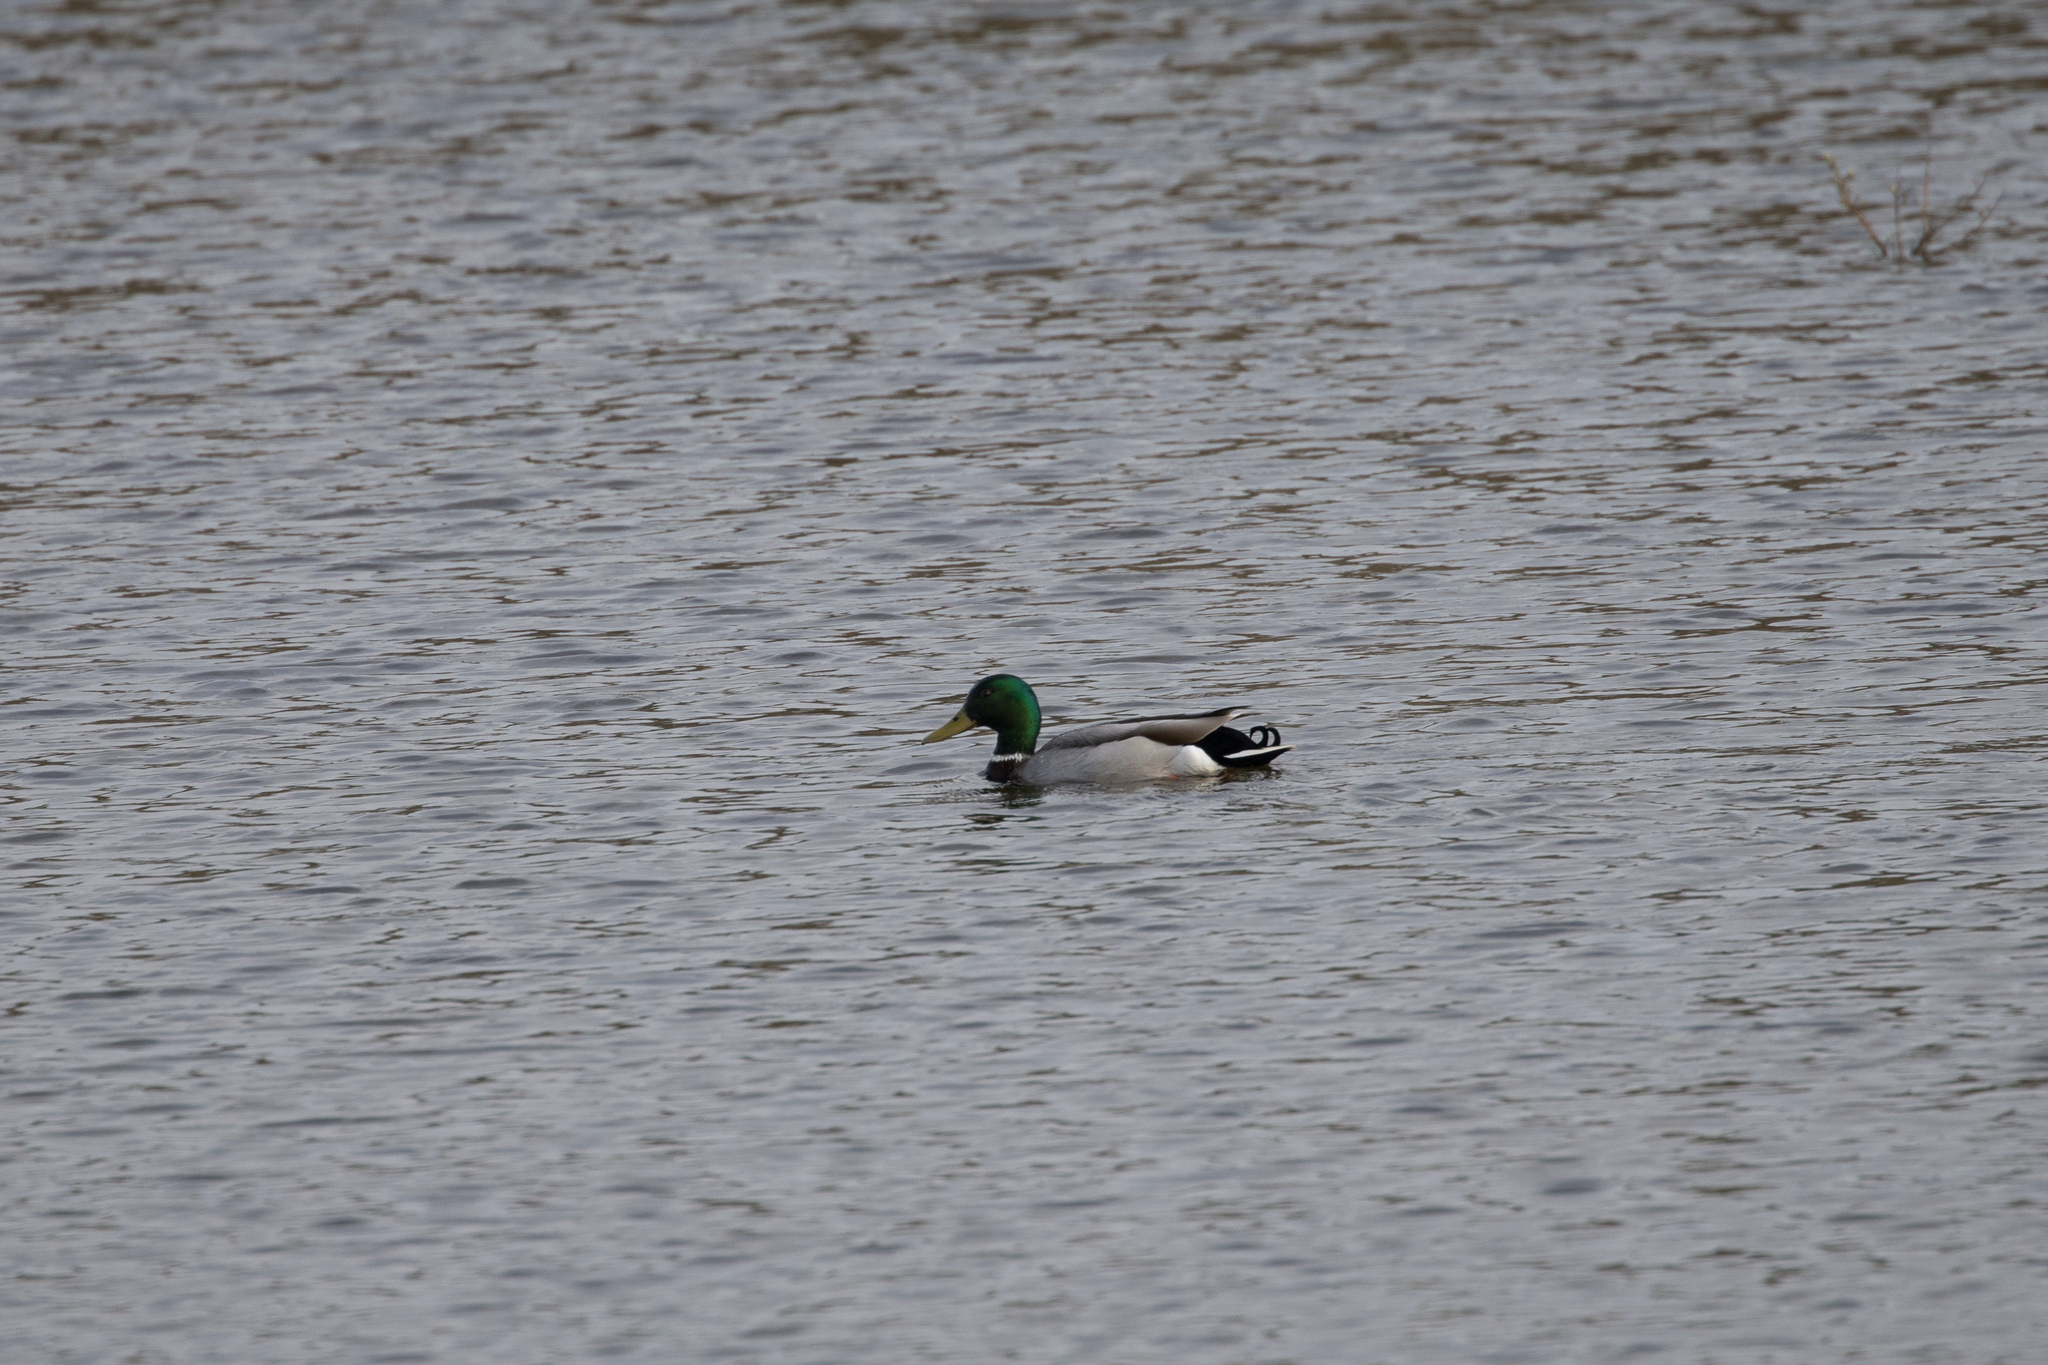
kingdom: Animalia
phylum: Chordata
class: Aves
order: Anseriformes
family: Anatidae
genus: Anas
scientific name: Anas platyrhynchos
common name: Mallard
